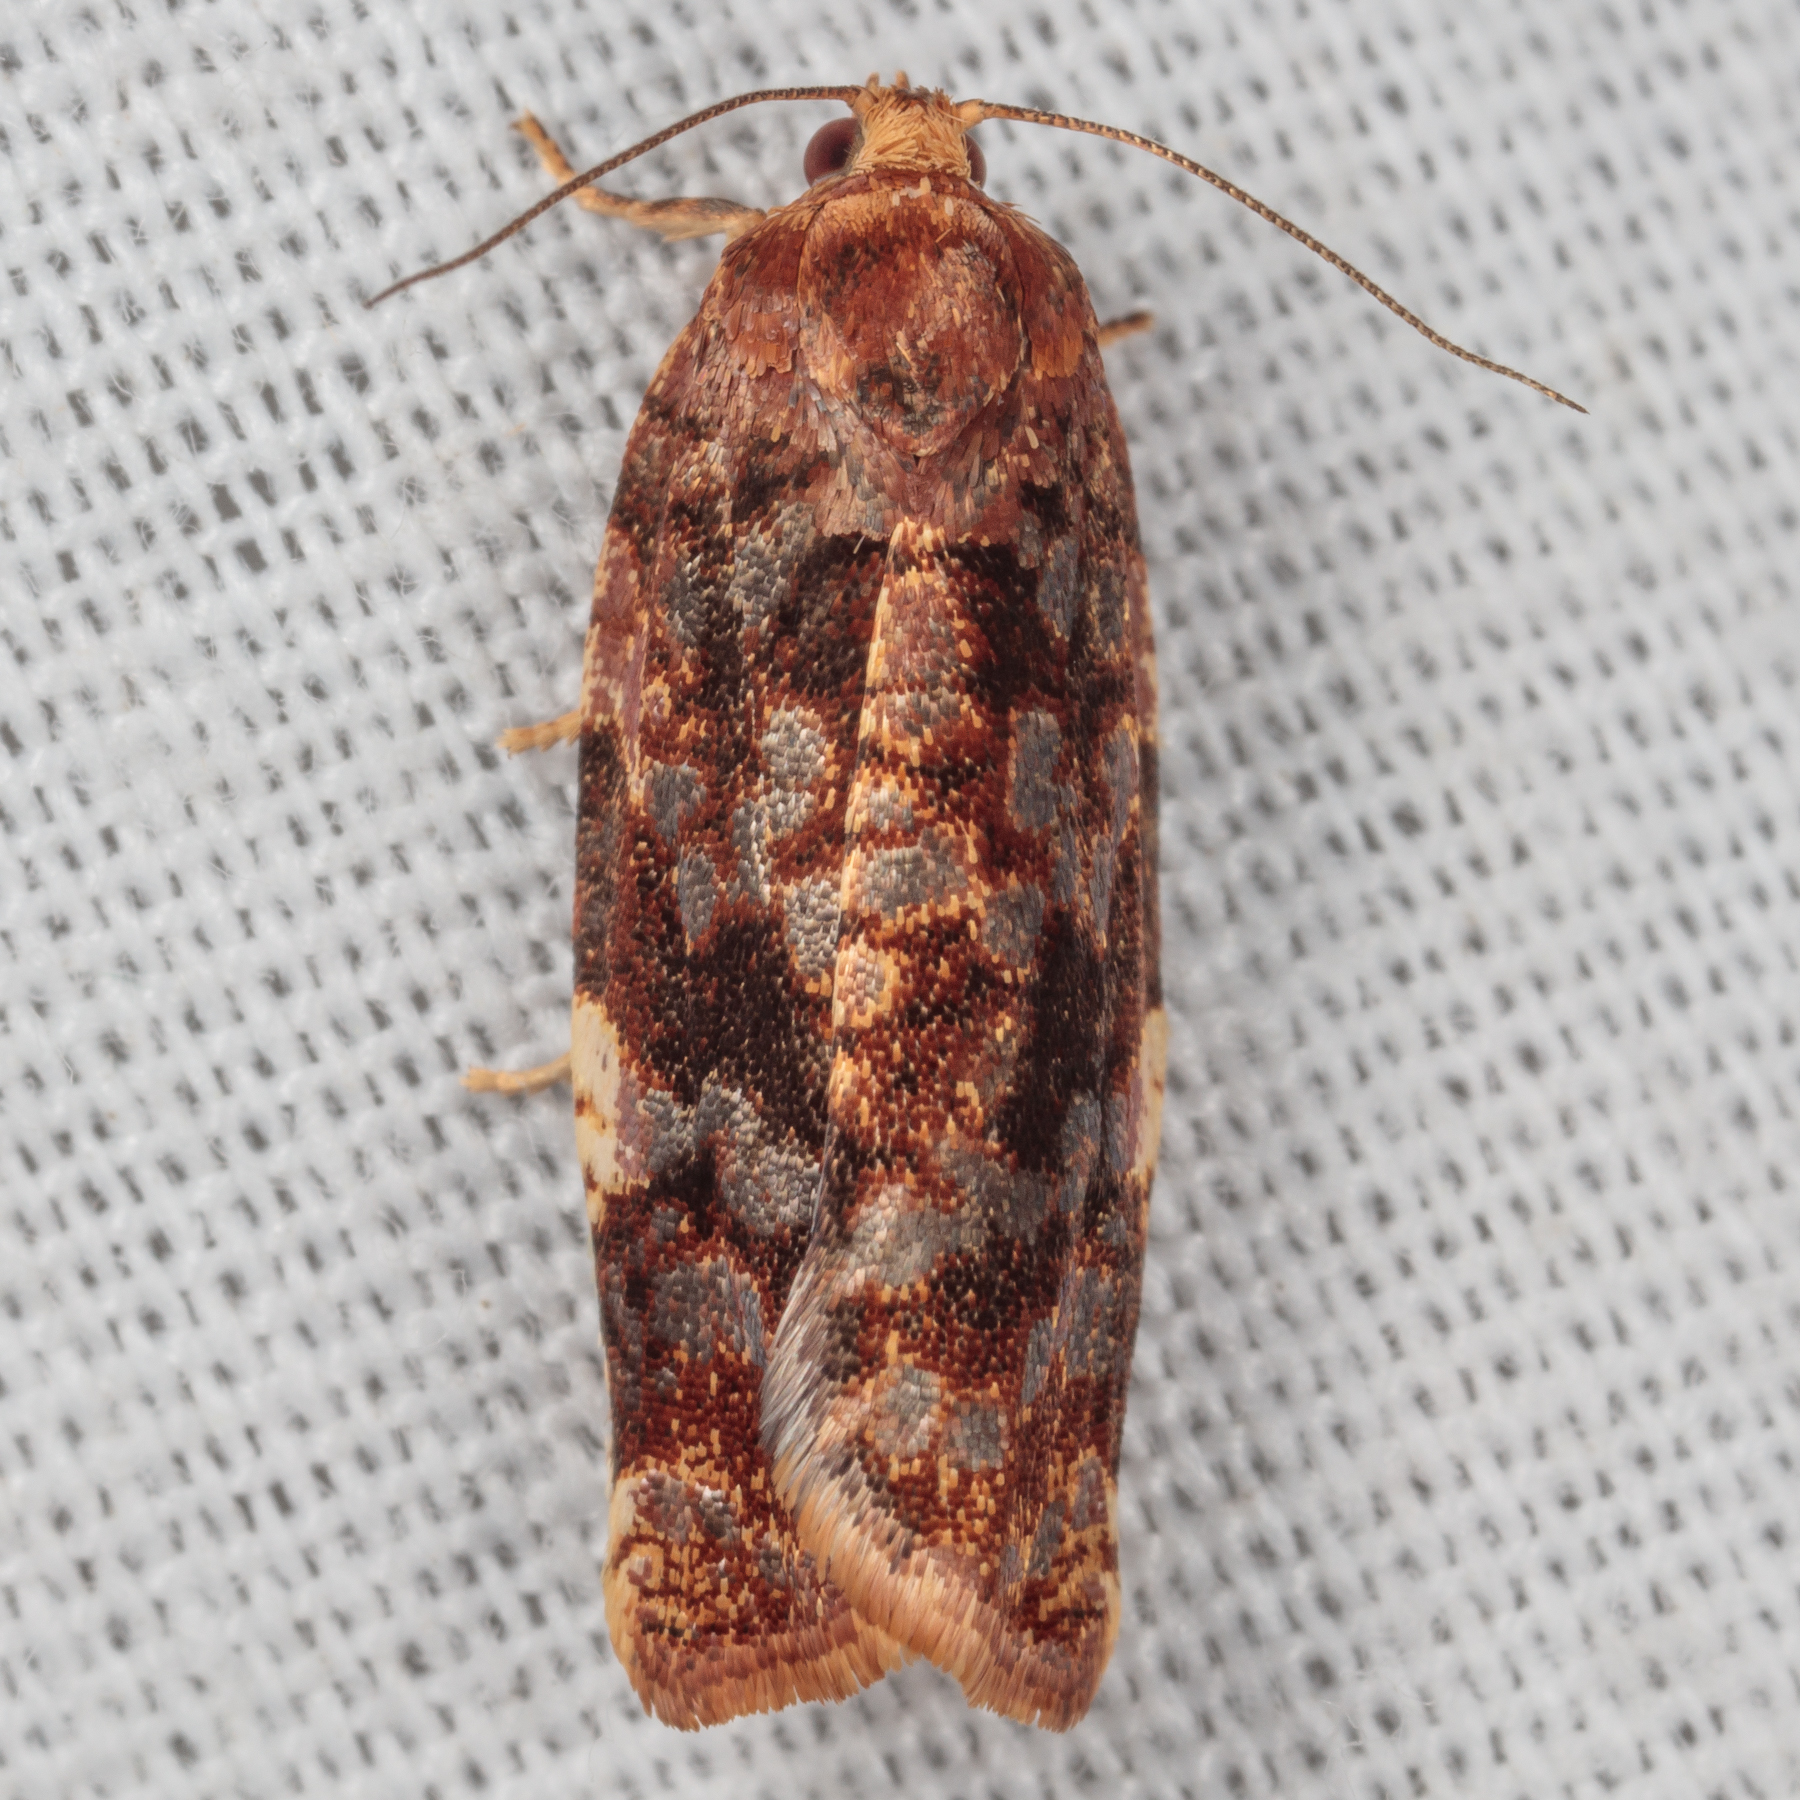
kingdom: Animalia
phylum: Arthropoda
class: Insecta
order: Lepidoptera
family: Tortricidae
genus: Archips
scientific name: Archips argyrospila
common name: Fruit-tree leafroller moth
